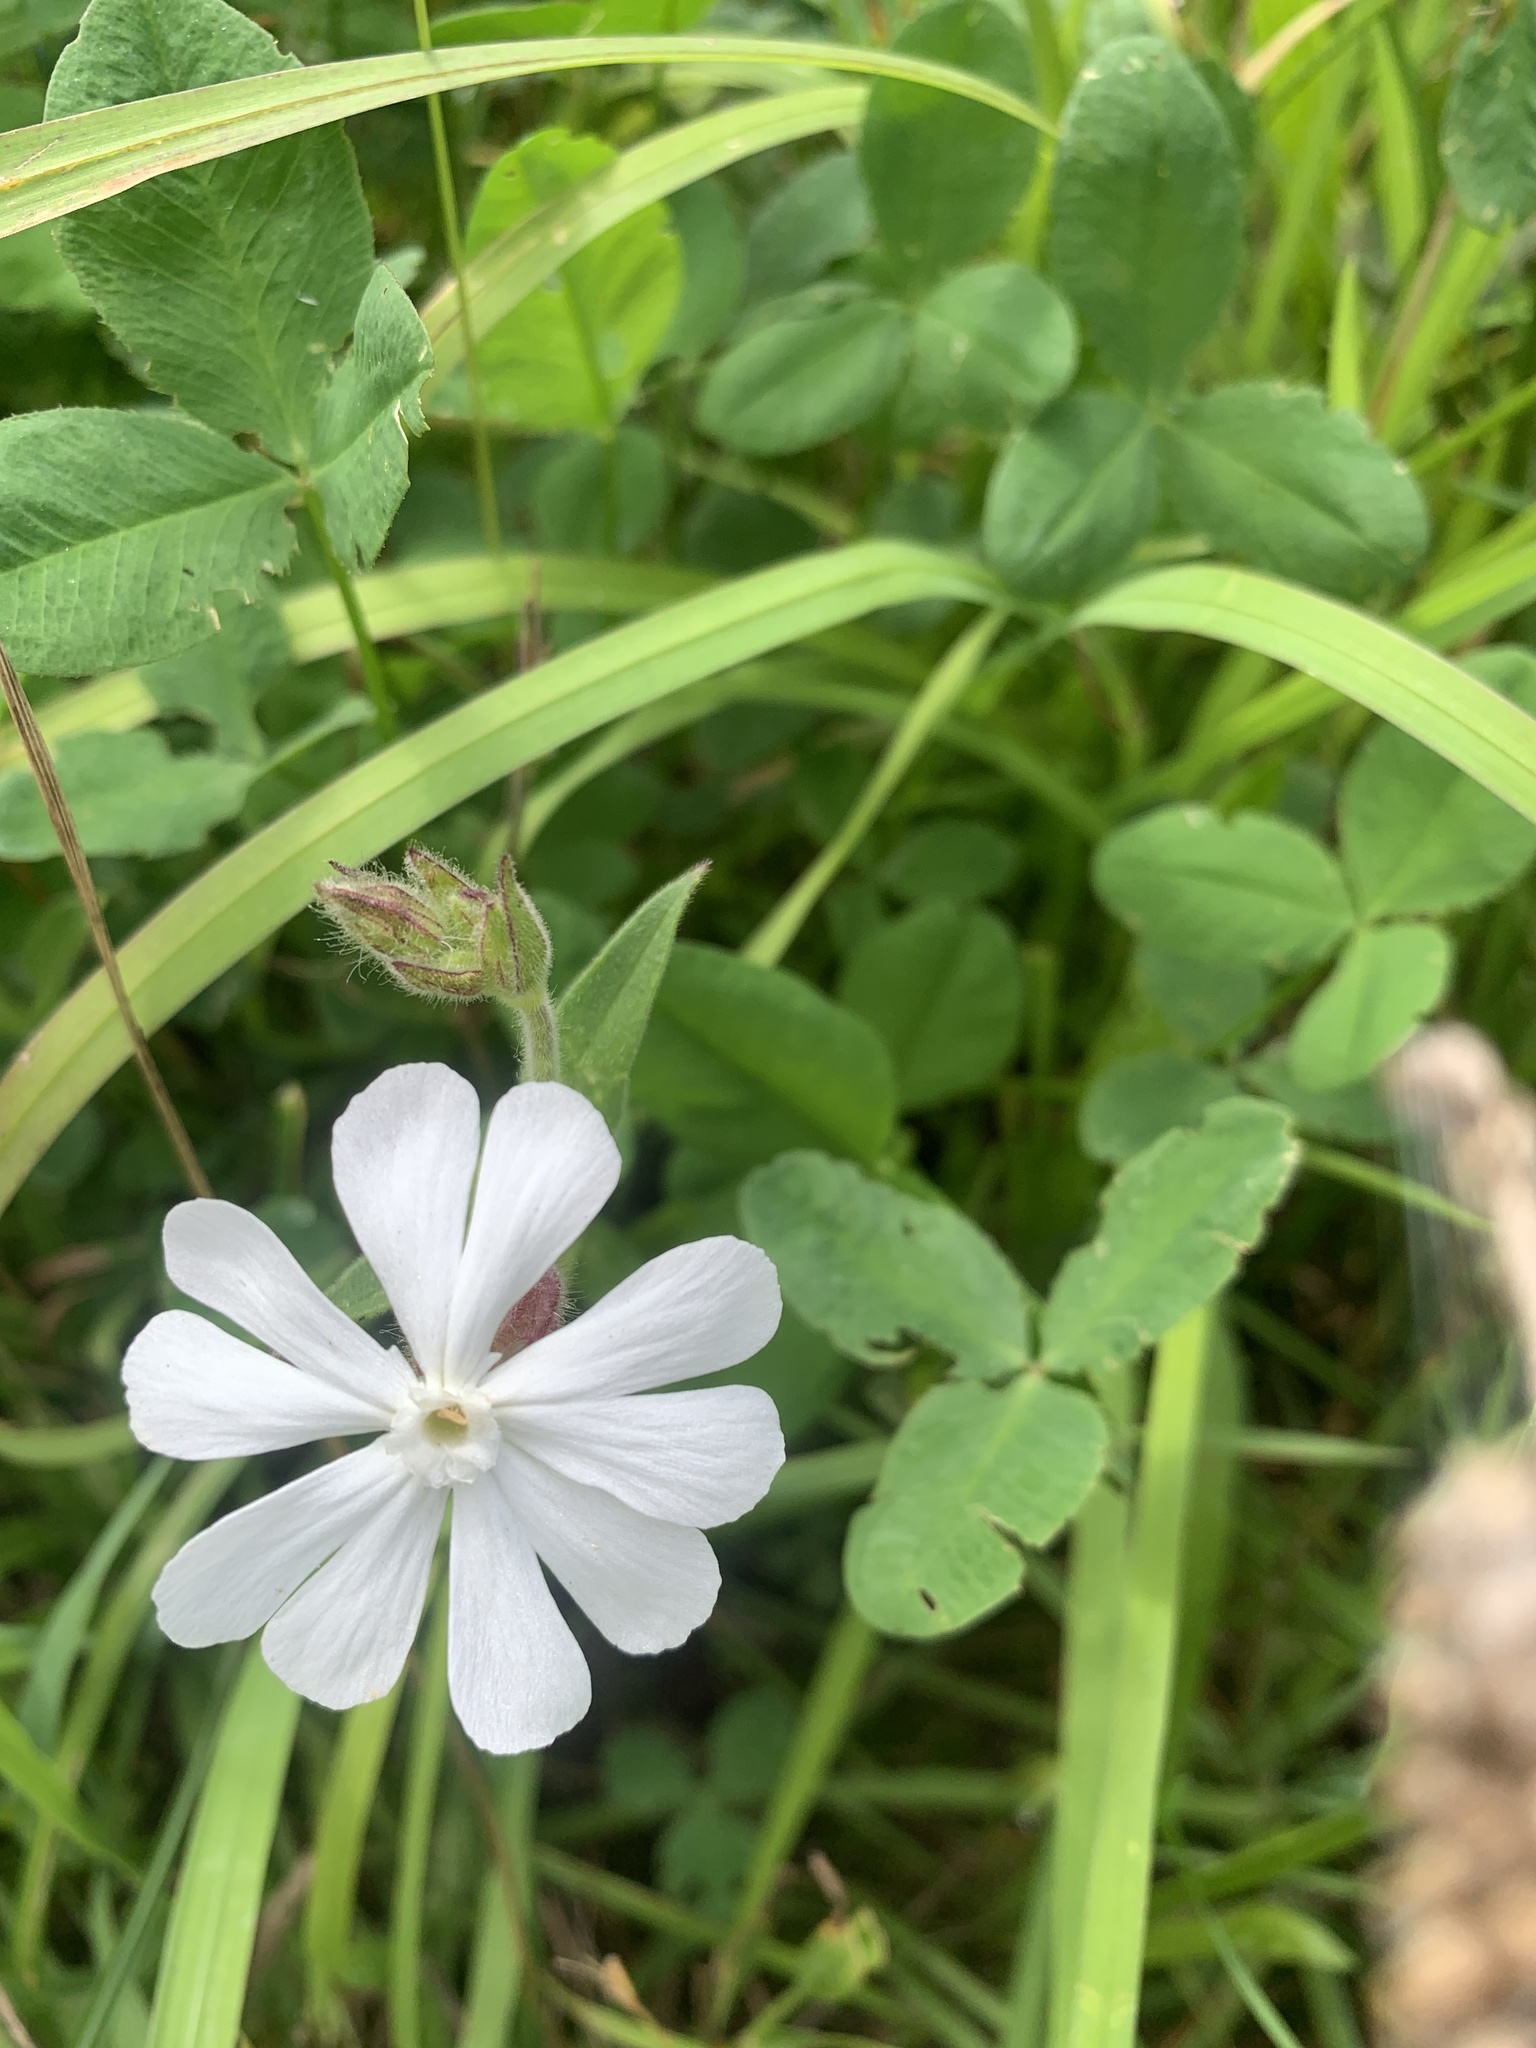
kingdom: Plantae
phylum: Tracheophyta
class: Magnoliopsida
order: Caryophyllales
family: Caryophyllaceae
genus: Silene
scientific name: Silene latifolia
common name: White campion
